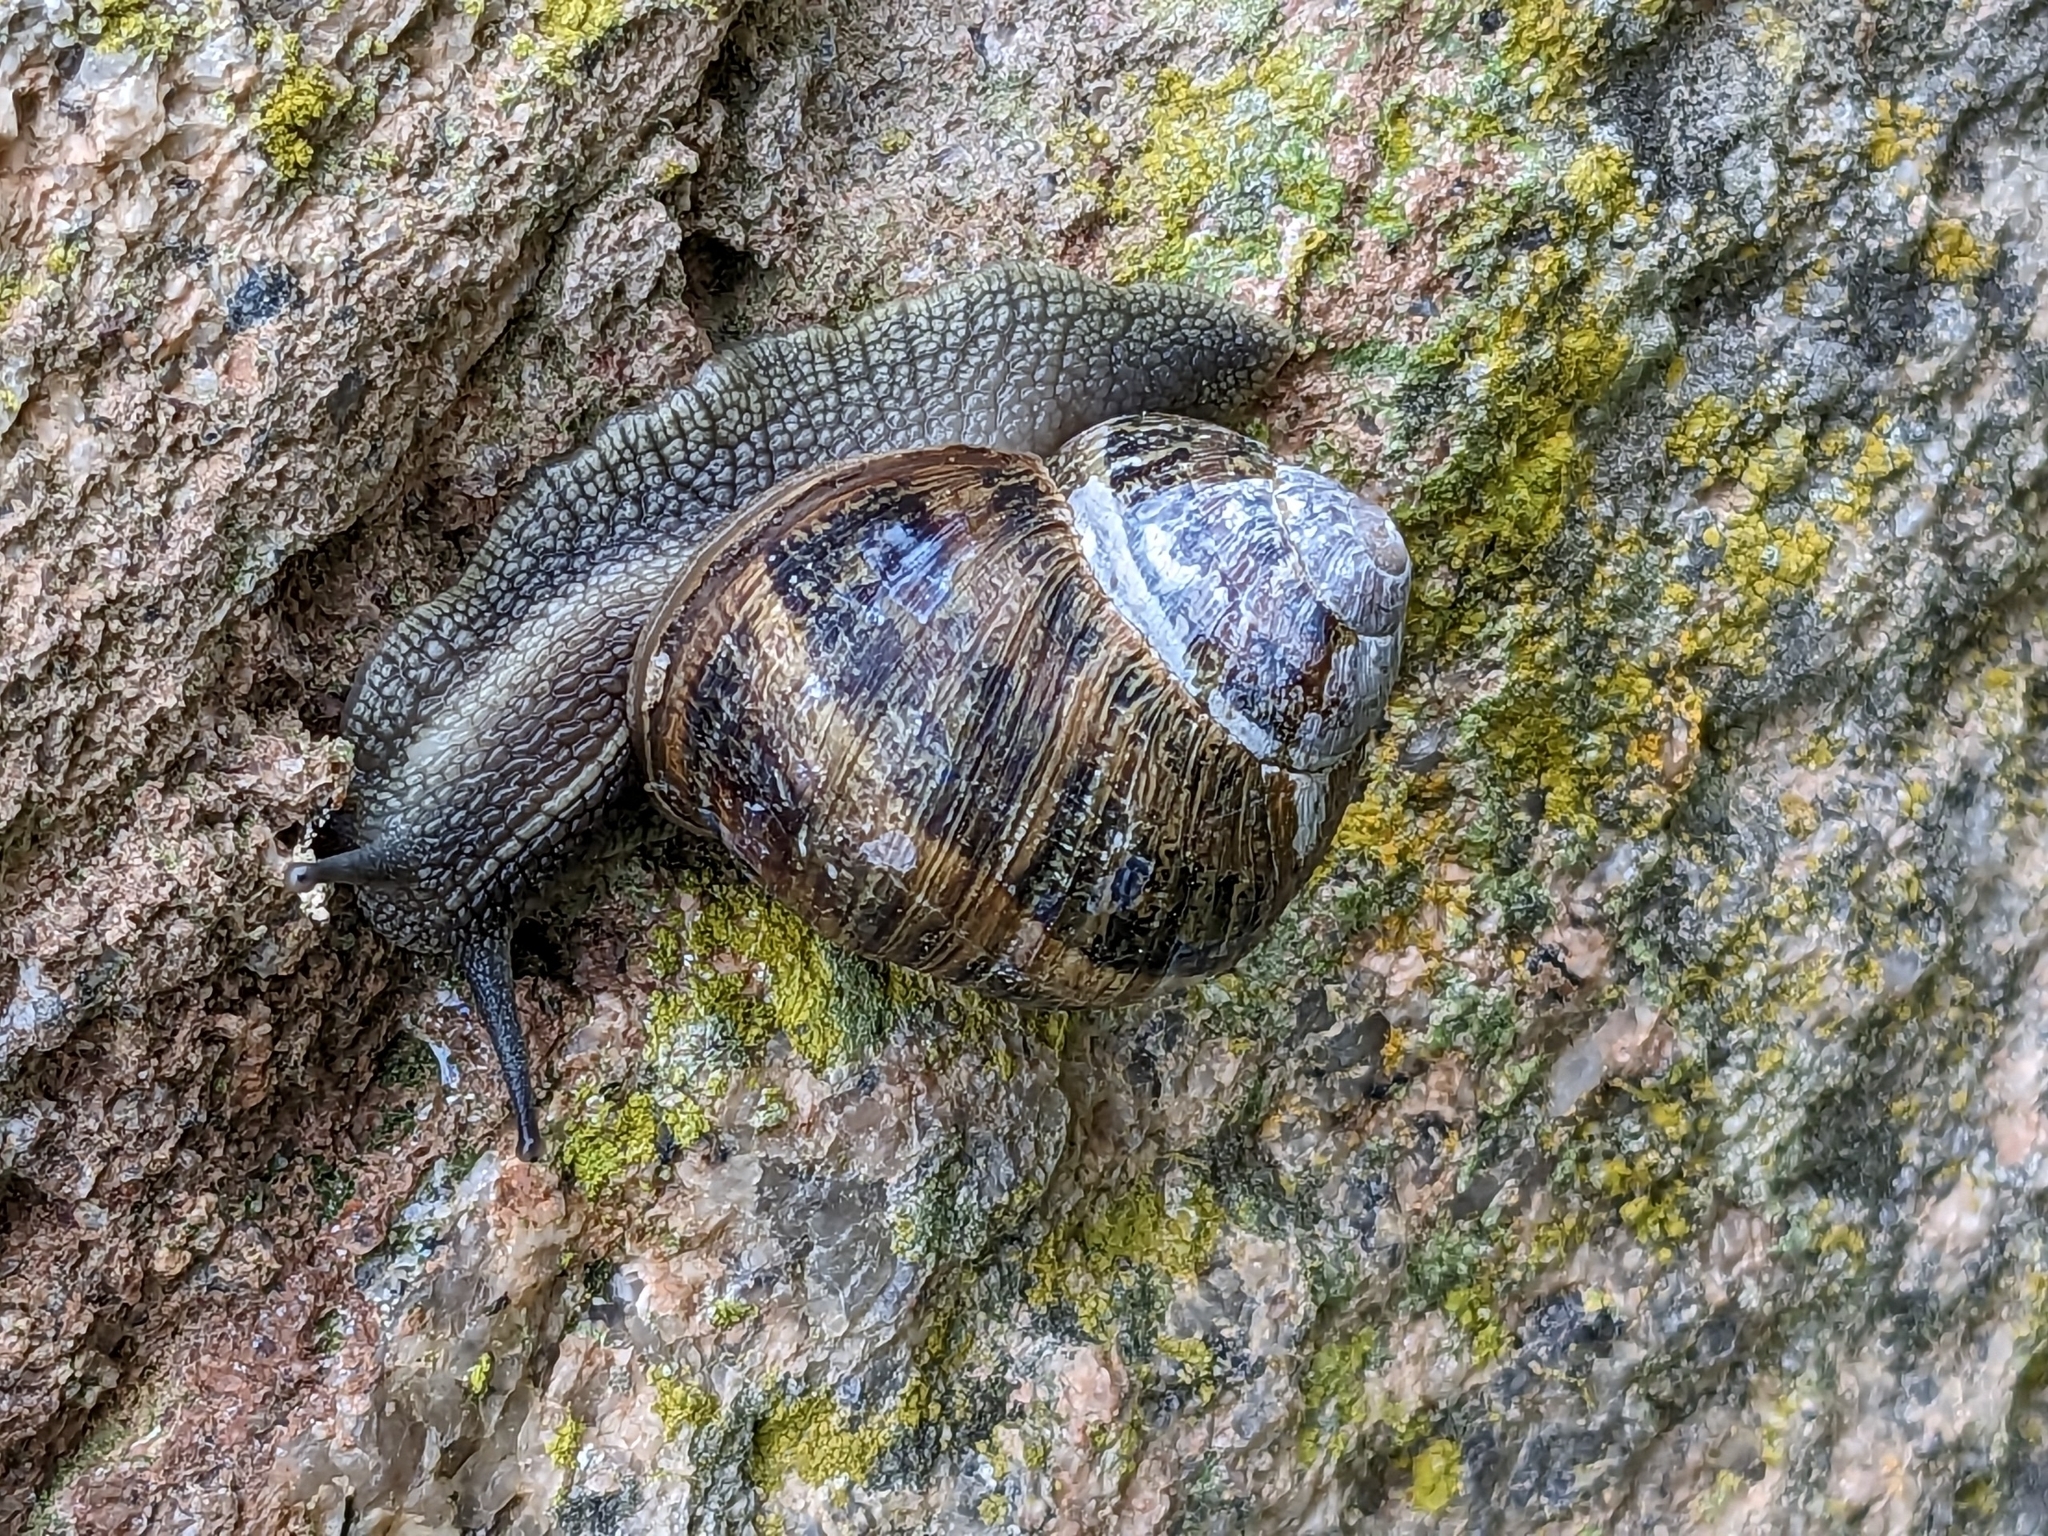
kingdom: Animalia
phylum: Mollusca
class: Gastropoda
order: Stylommatophora
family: Helicidae
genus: Cornu
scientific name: Cornu aspersum
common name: Brown garden snail
